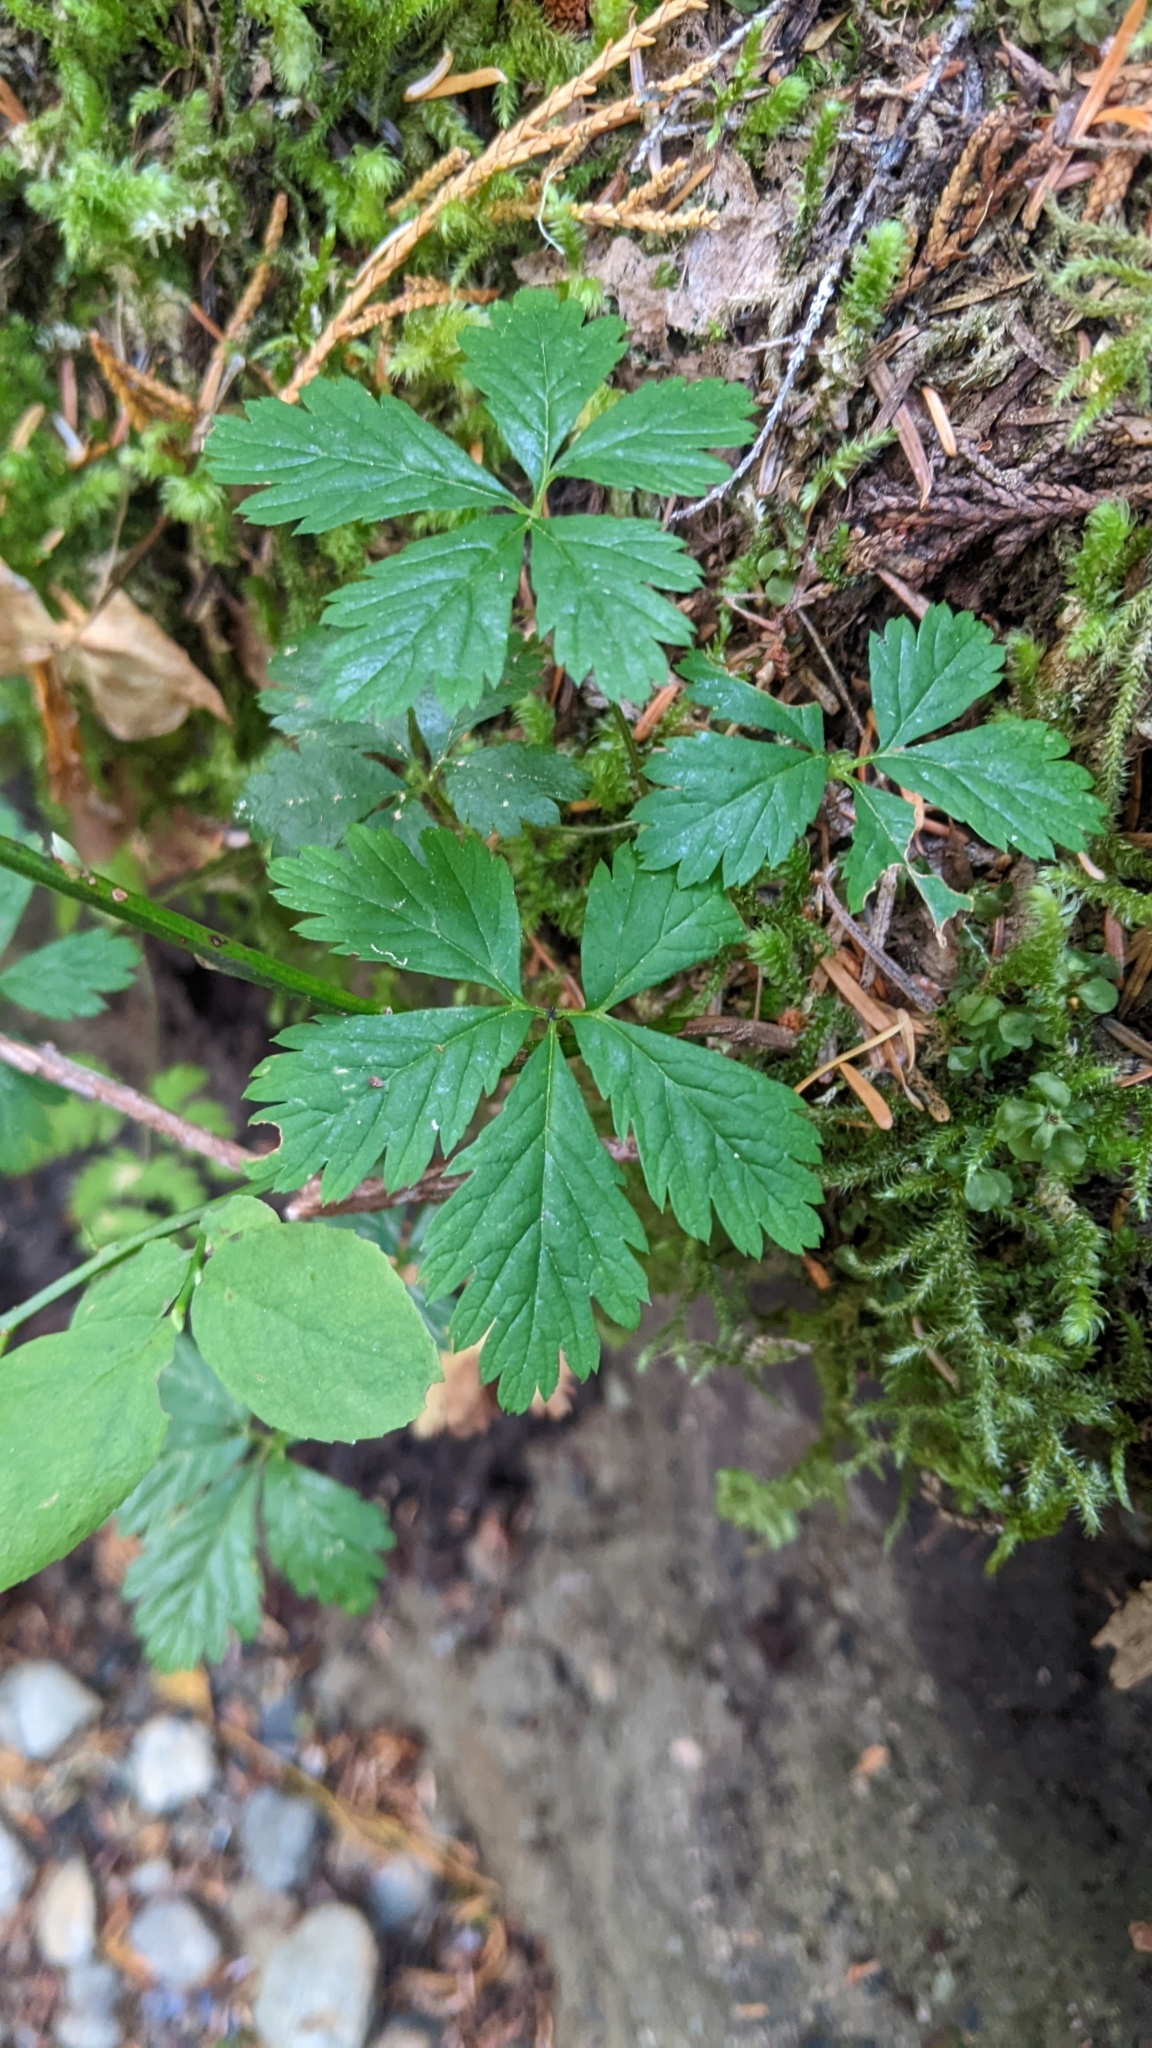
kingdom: Plantae
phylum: Tracheophyta
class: Magnoliopsida
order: Rosales
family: Rosaceae
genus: Rubus
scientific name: Rubus pedatus
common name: Creeping raspberry
